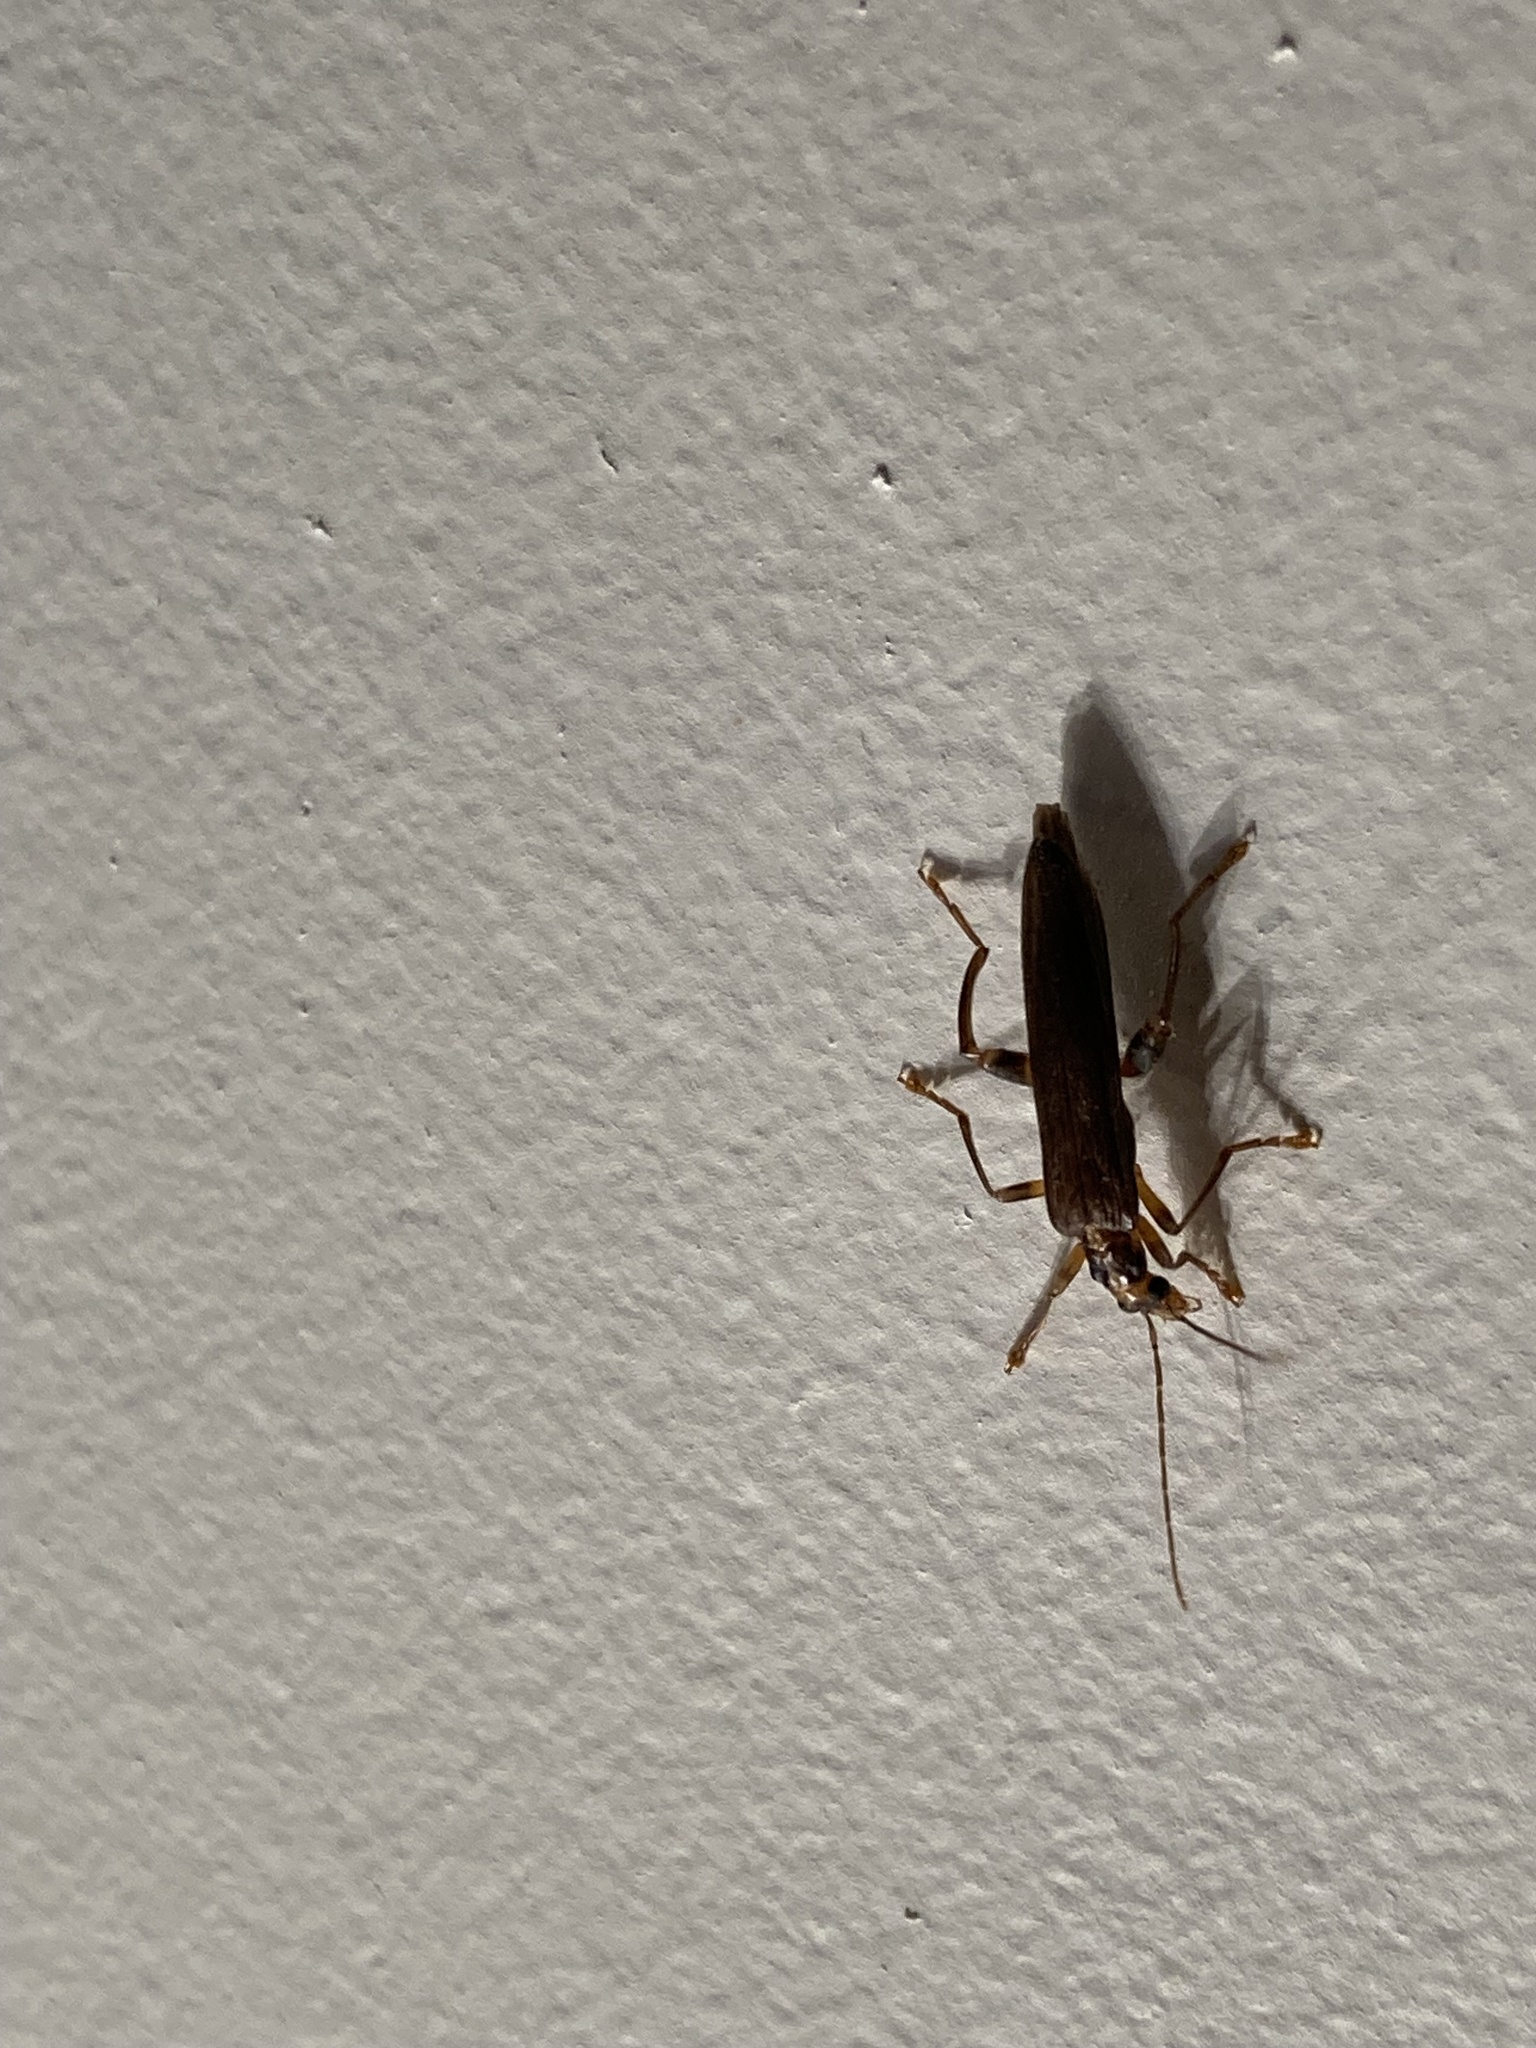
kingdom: Animalia
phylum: Arthropoda
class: Insecta
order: Coleoptera
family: Oedemeridae
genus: Oedemera
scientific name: Oedemera femoralis
